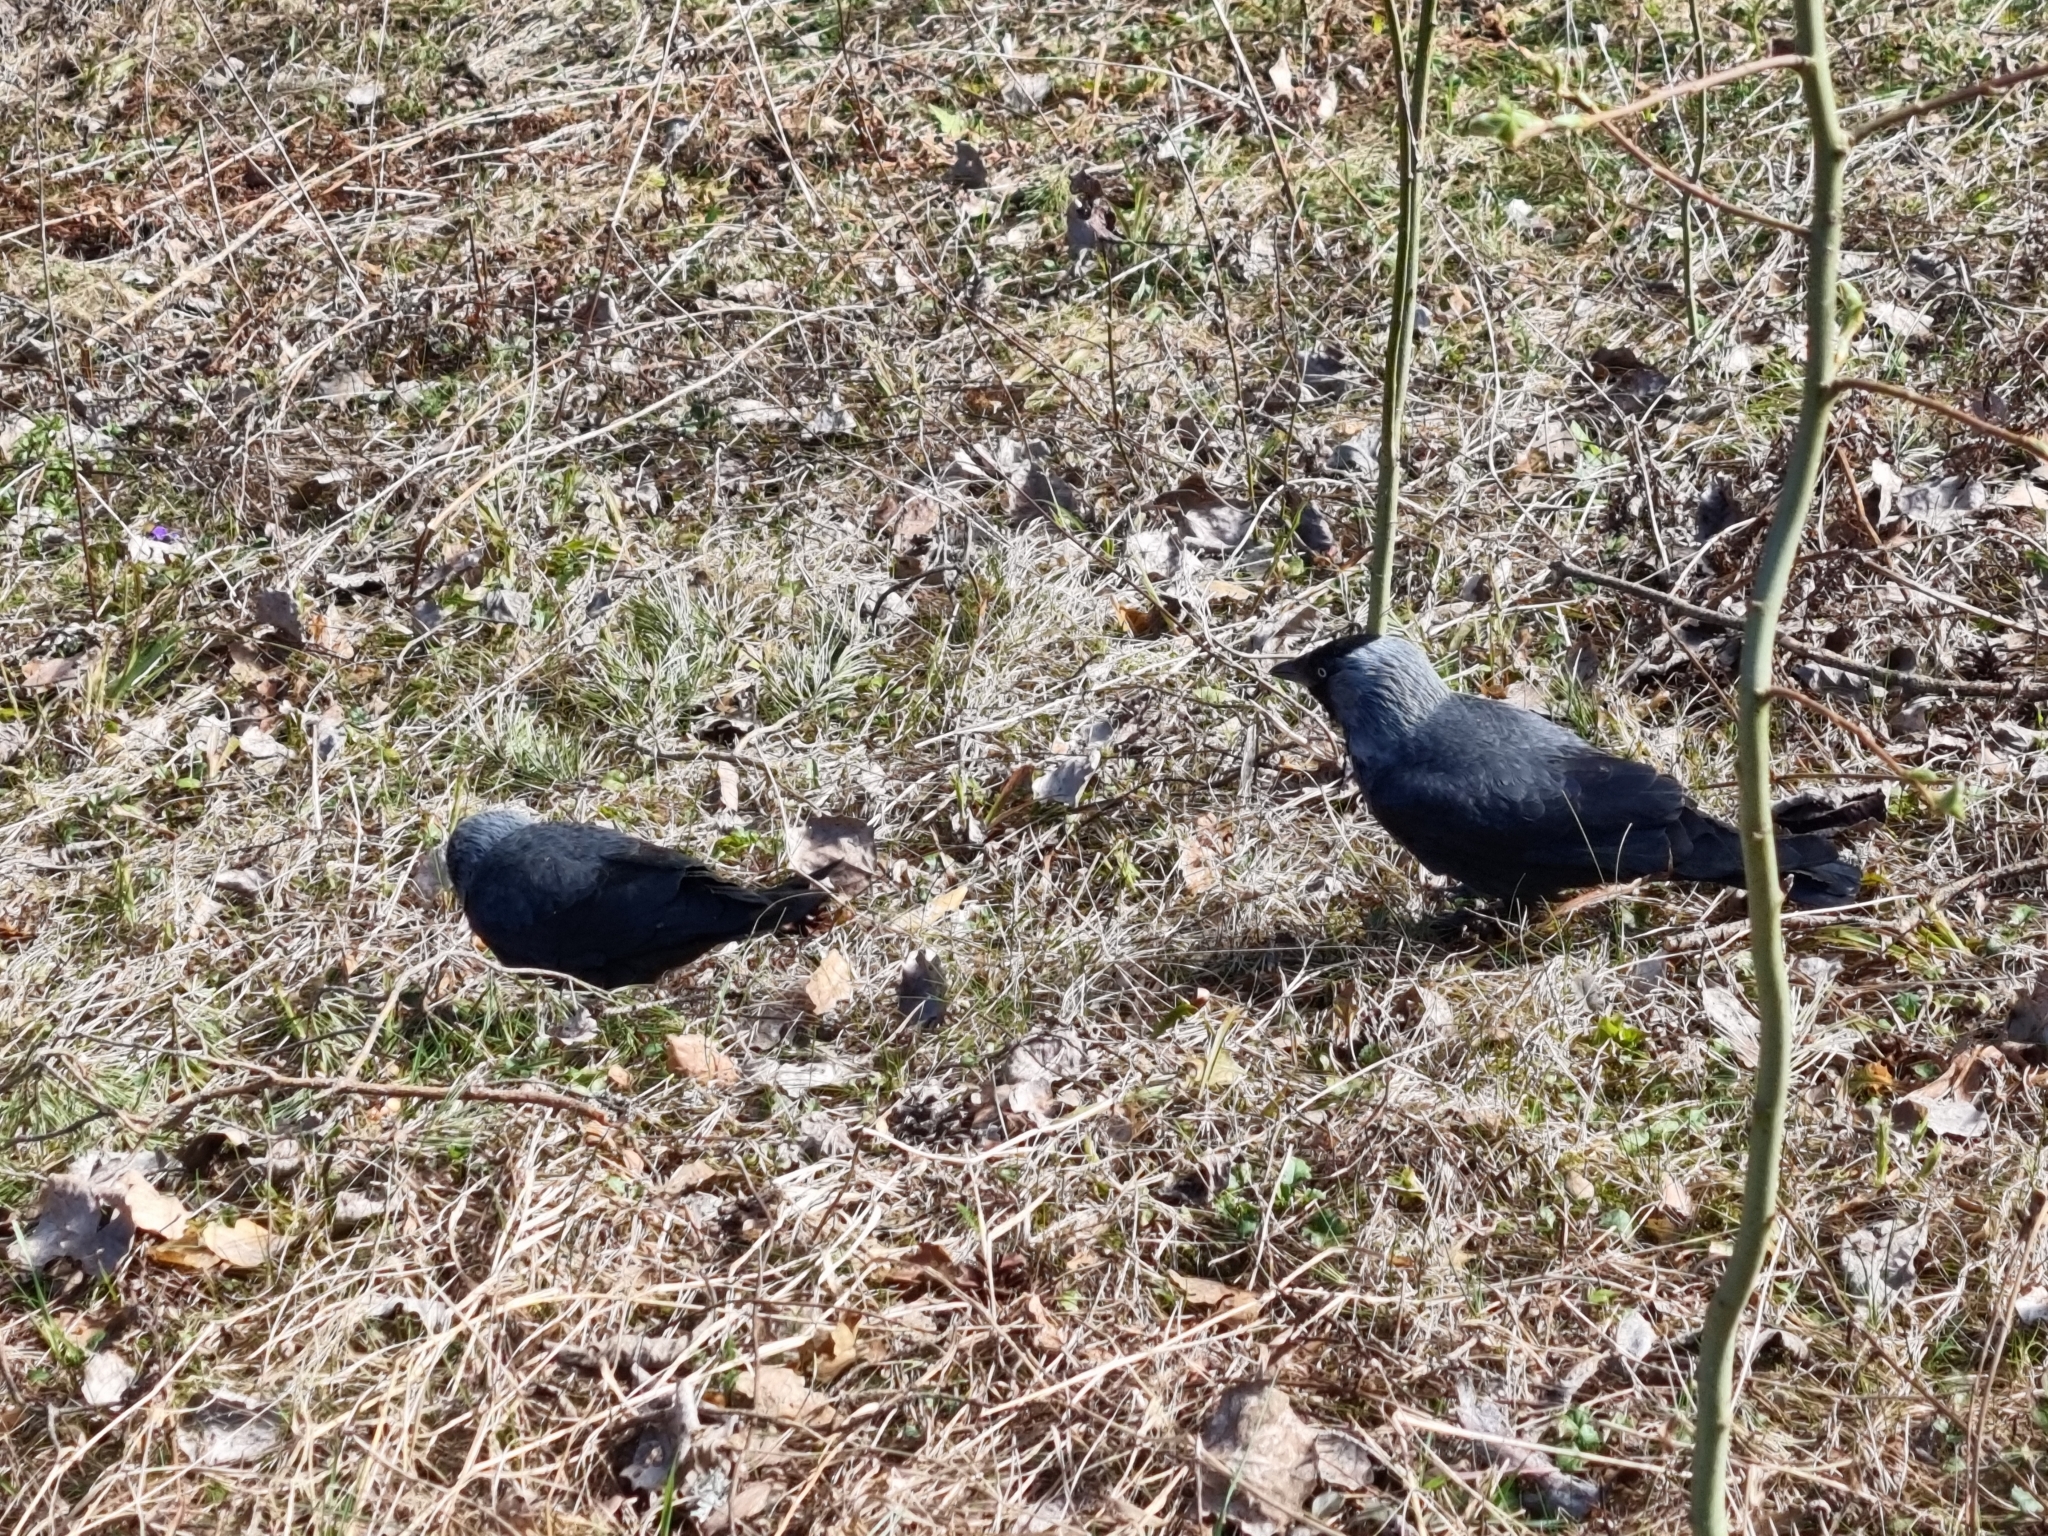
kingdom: Animalia
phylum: Chordata
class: Aves
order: Passeriformes
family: Corvidae
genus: Coloeus
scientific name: Coloeus monedula
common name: Western jackdaw
